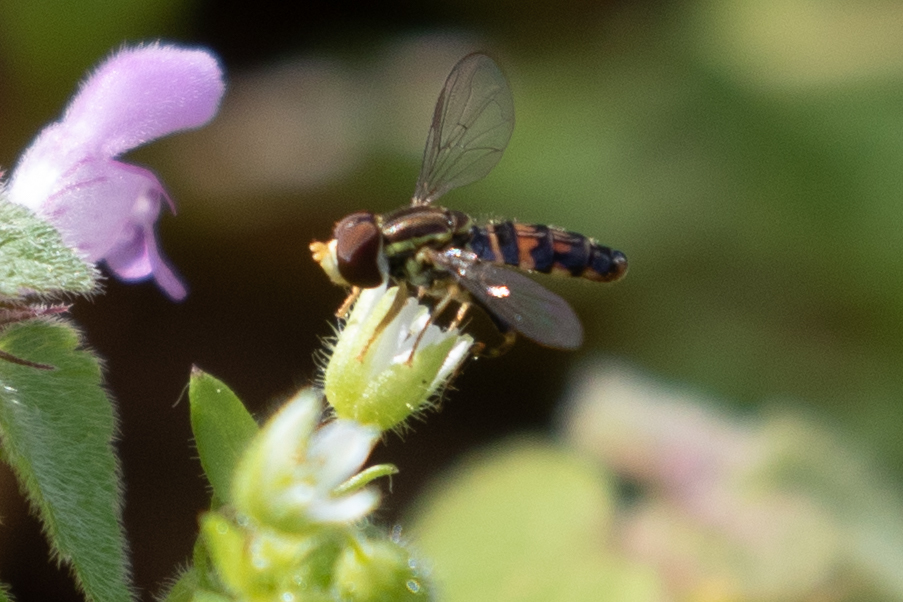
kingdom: Animalia
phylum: Arthropoda
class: Insecta
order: Diptera
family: Syrphidae
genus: Toxomerus
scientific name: Toxomerus geminatus
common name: Eastern calligrapher
